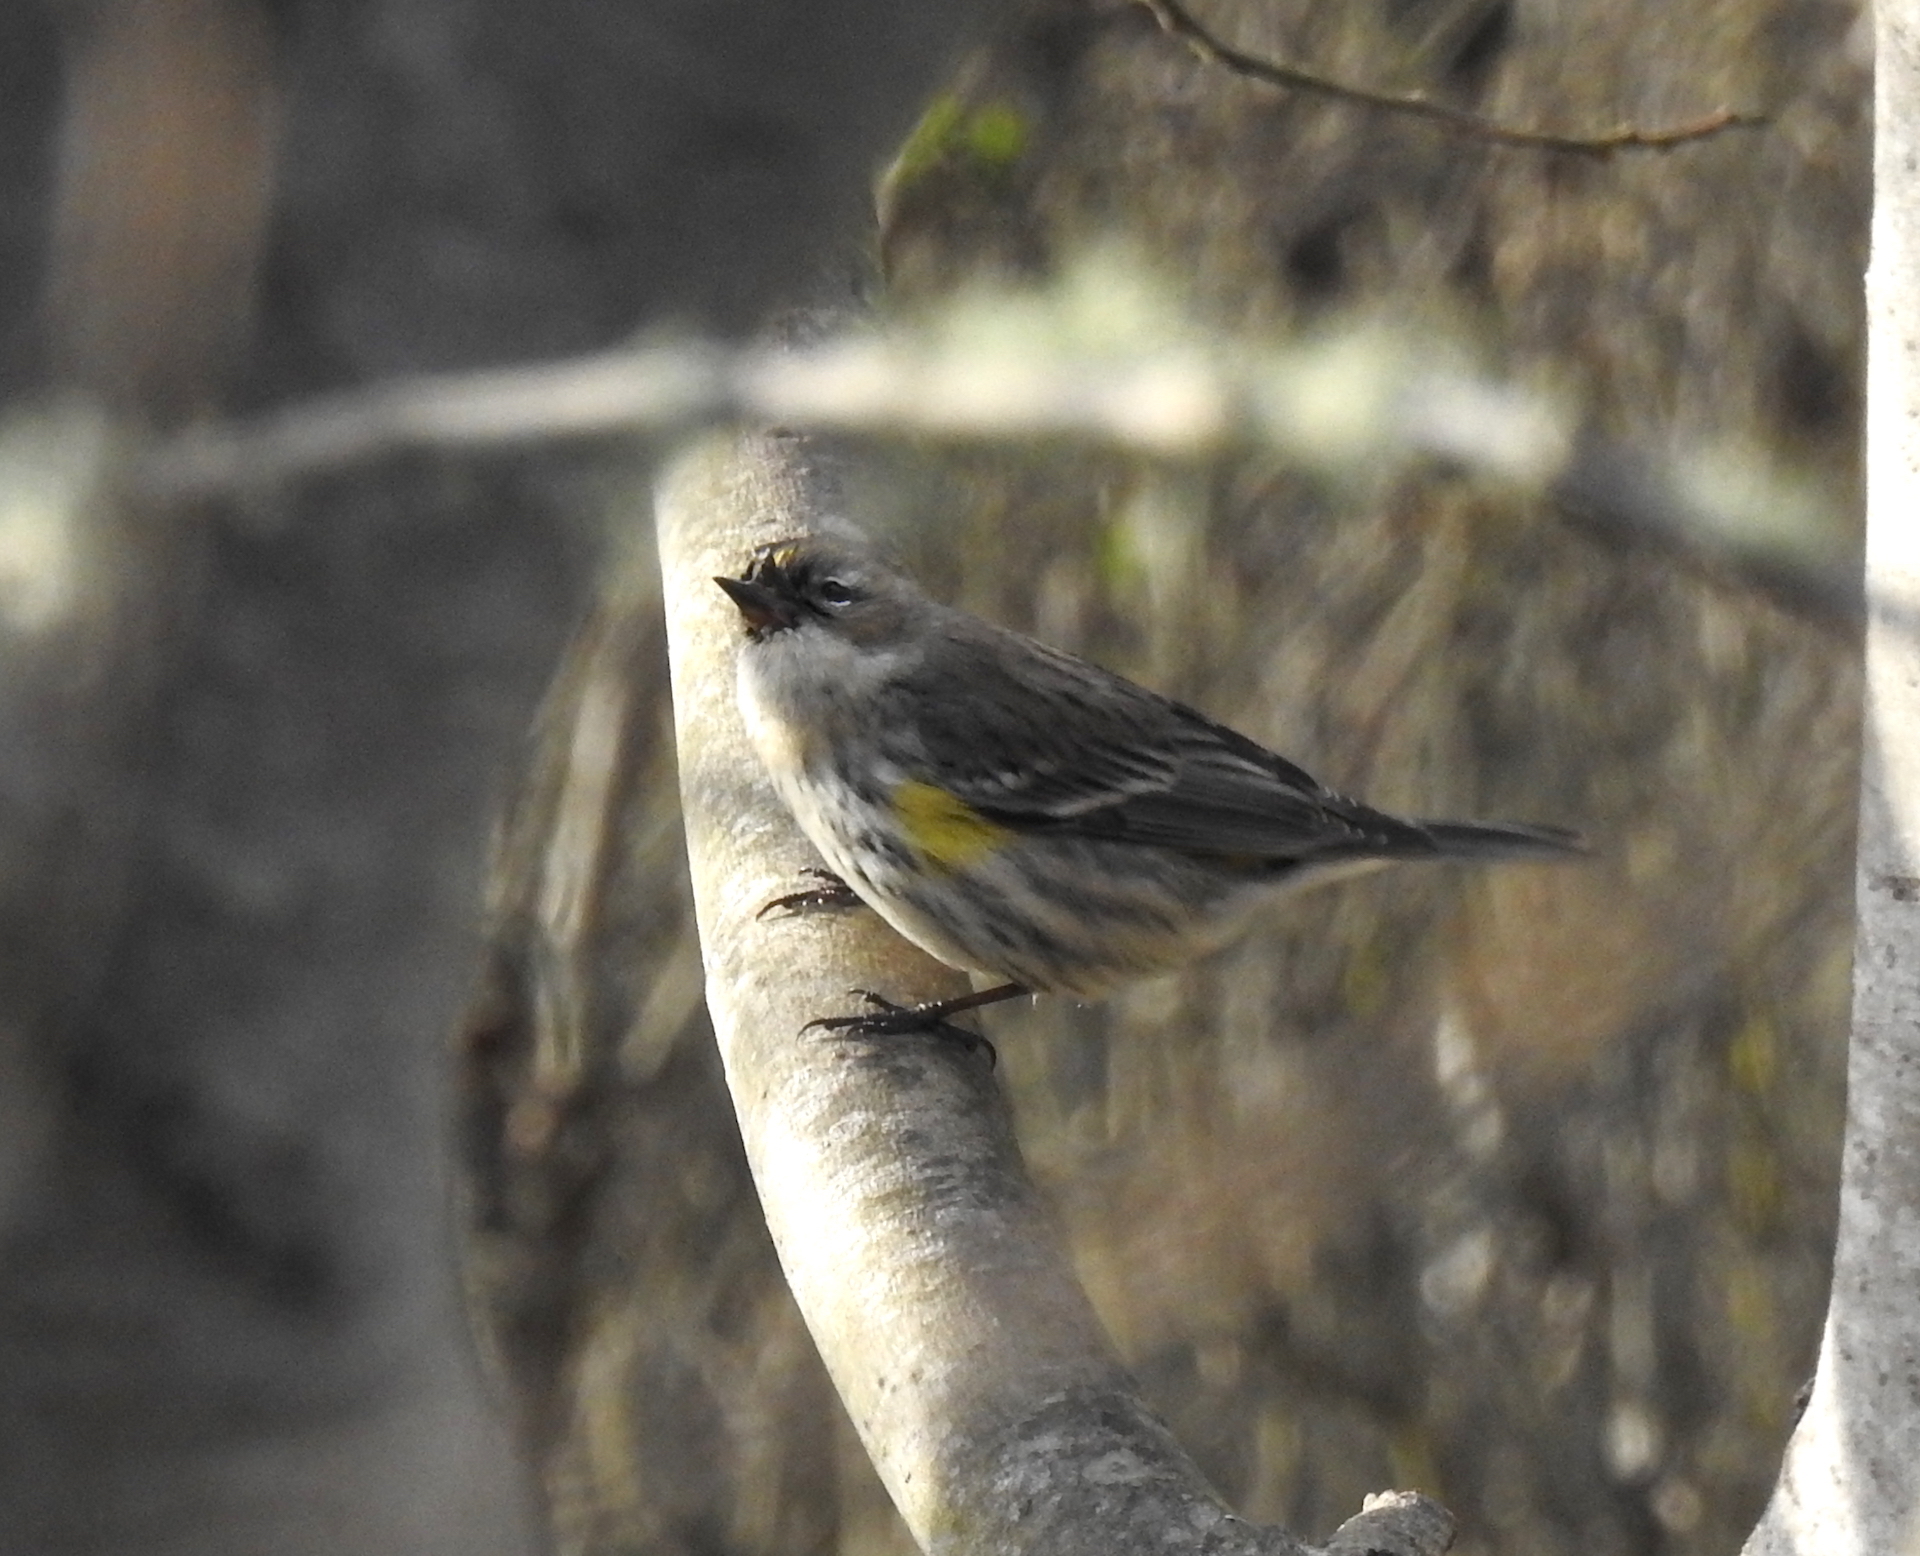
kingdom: Animalia
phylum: Chordata
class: Aves
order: Passeriformes
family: Parulidae
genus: Setophaga
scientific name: Setophaga coronata
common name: Myrtle warbler
